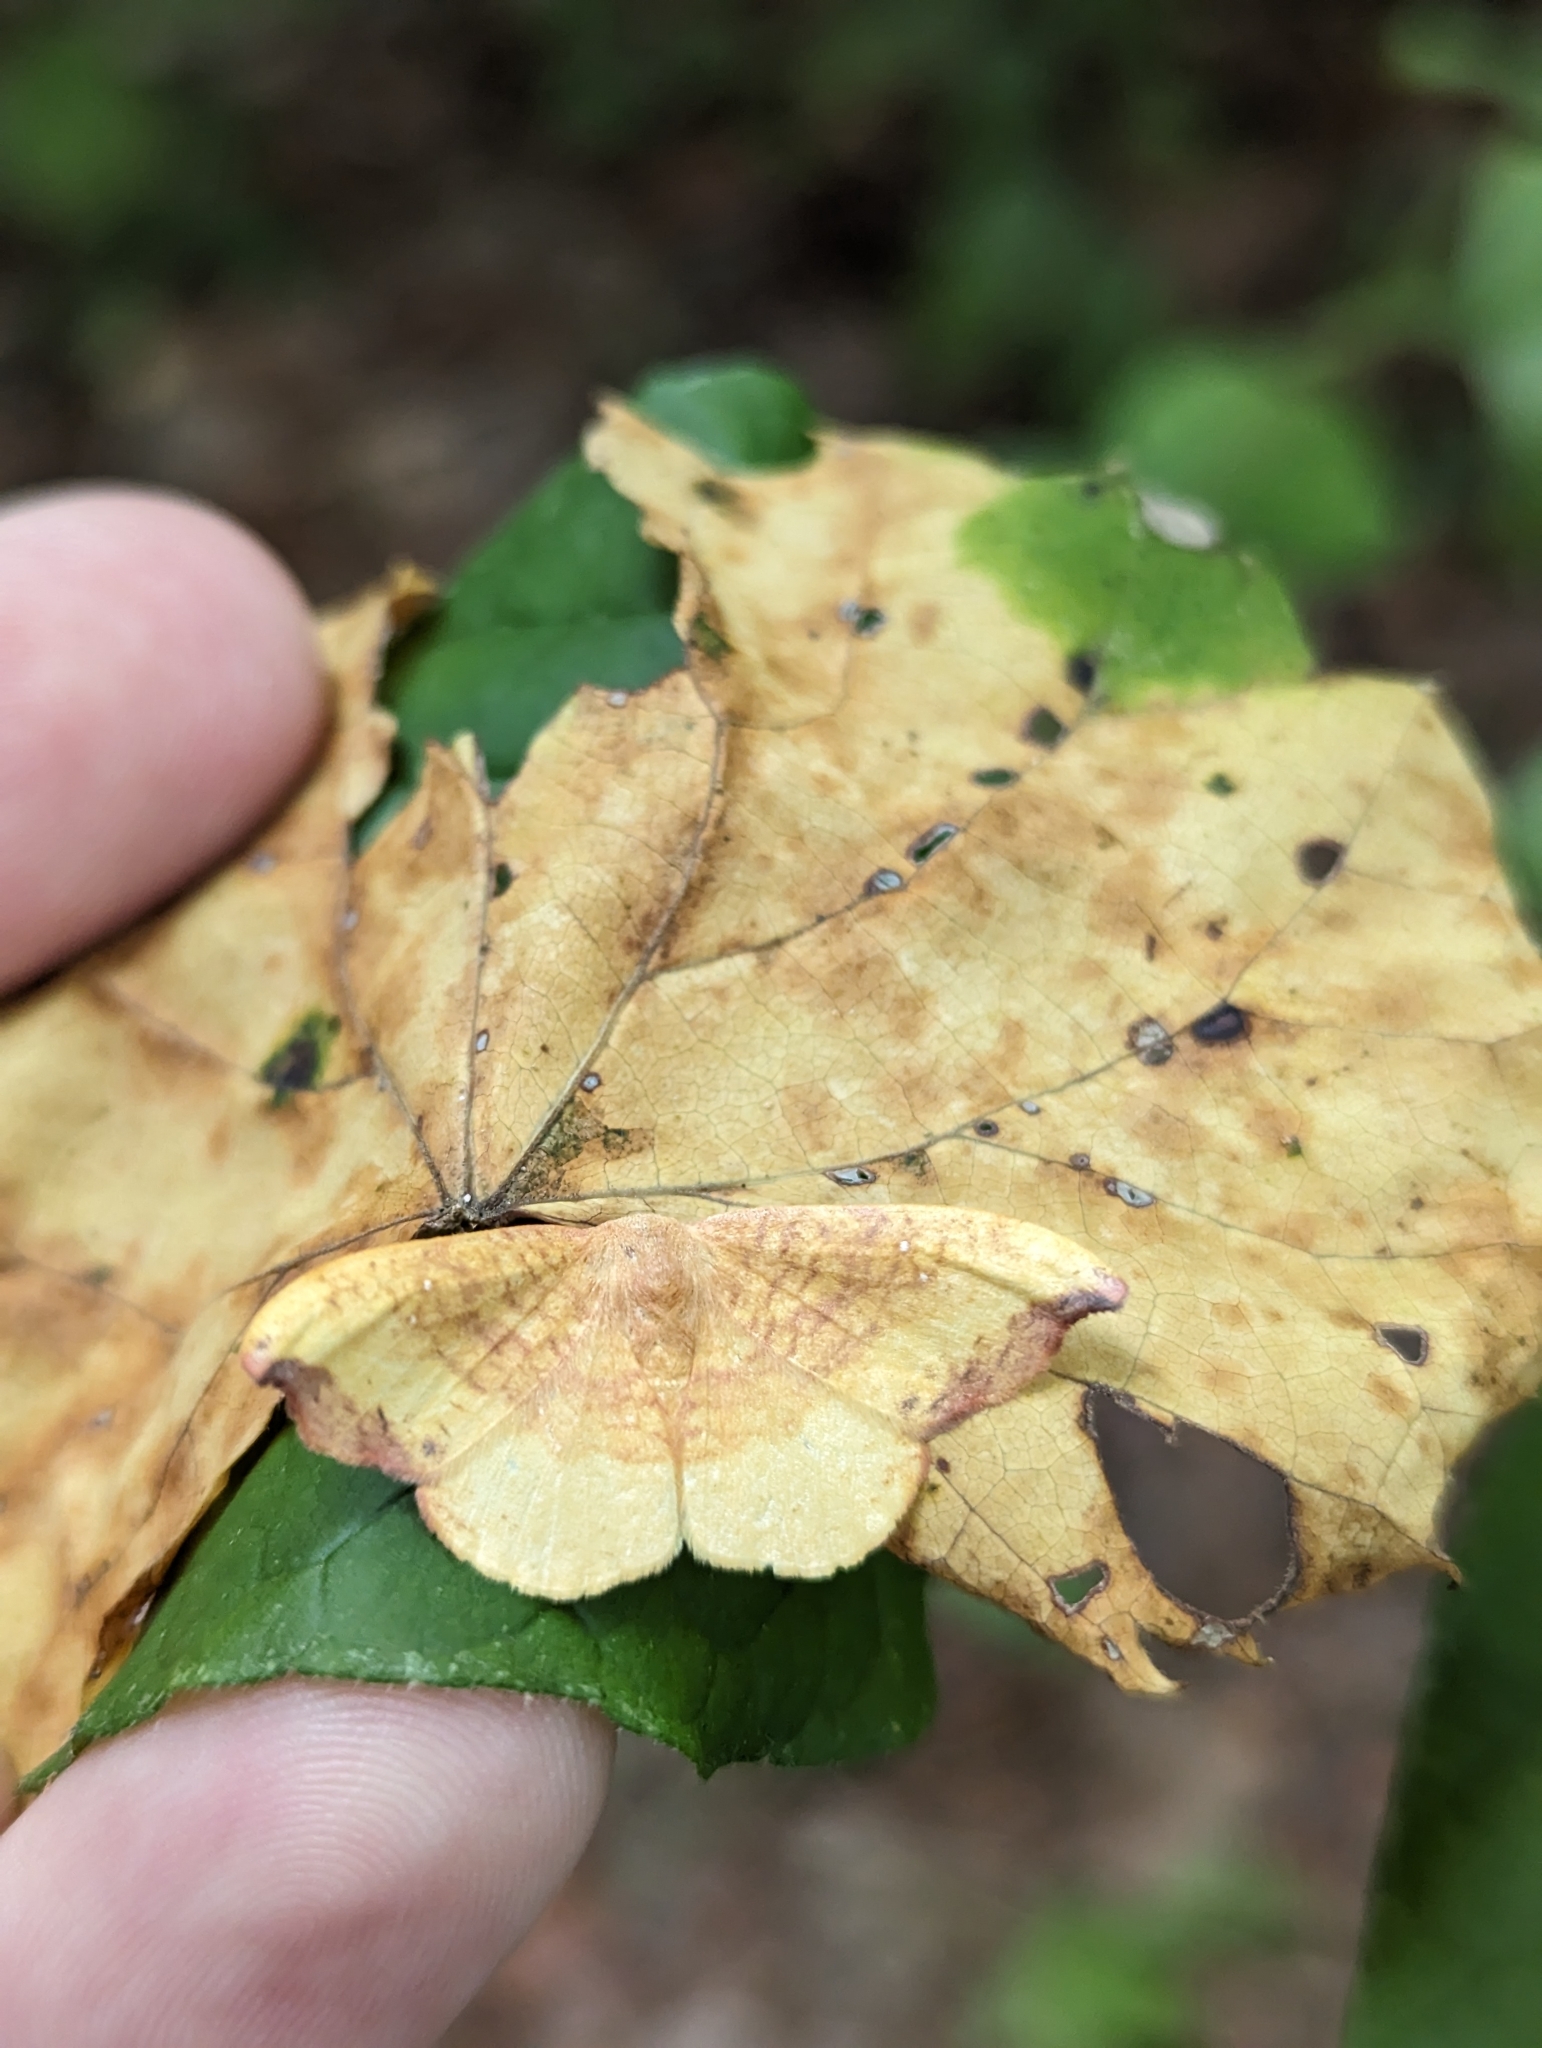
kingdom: Animalia
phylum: Arthropoda
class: Insecta
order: Lepidoptera
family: Drepanidae
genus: Oreta
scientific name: Oreta rosea
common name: Rose hooktip
